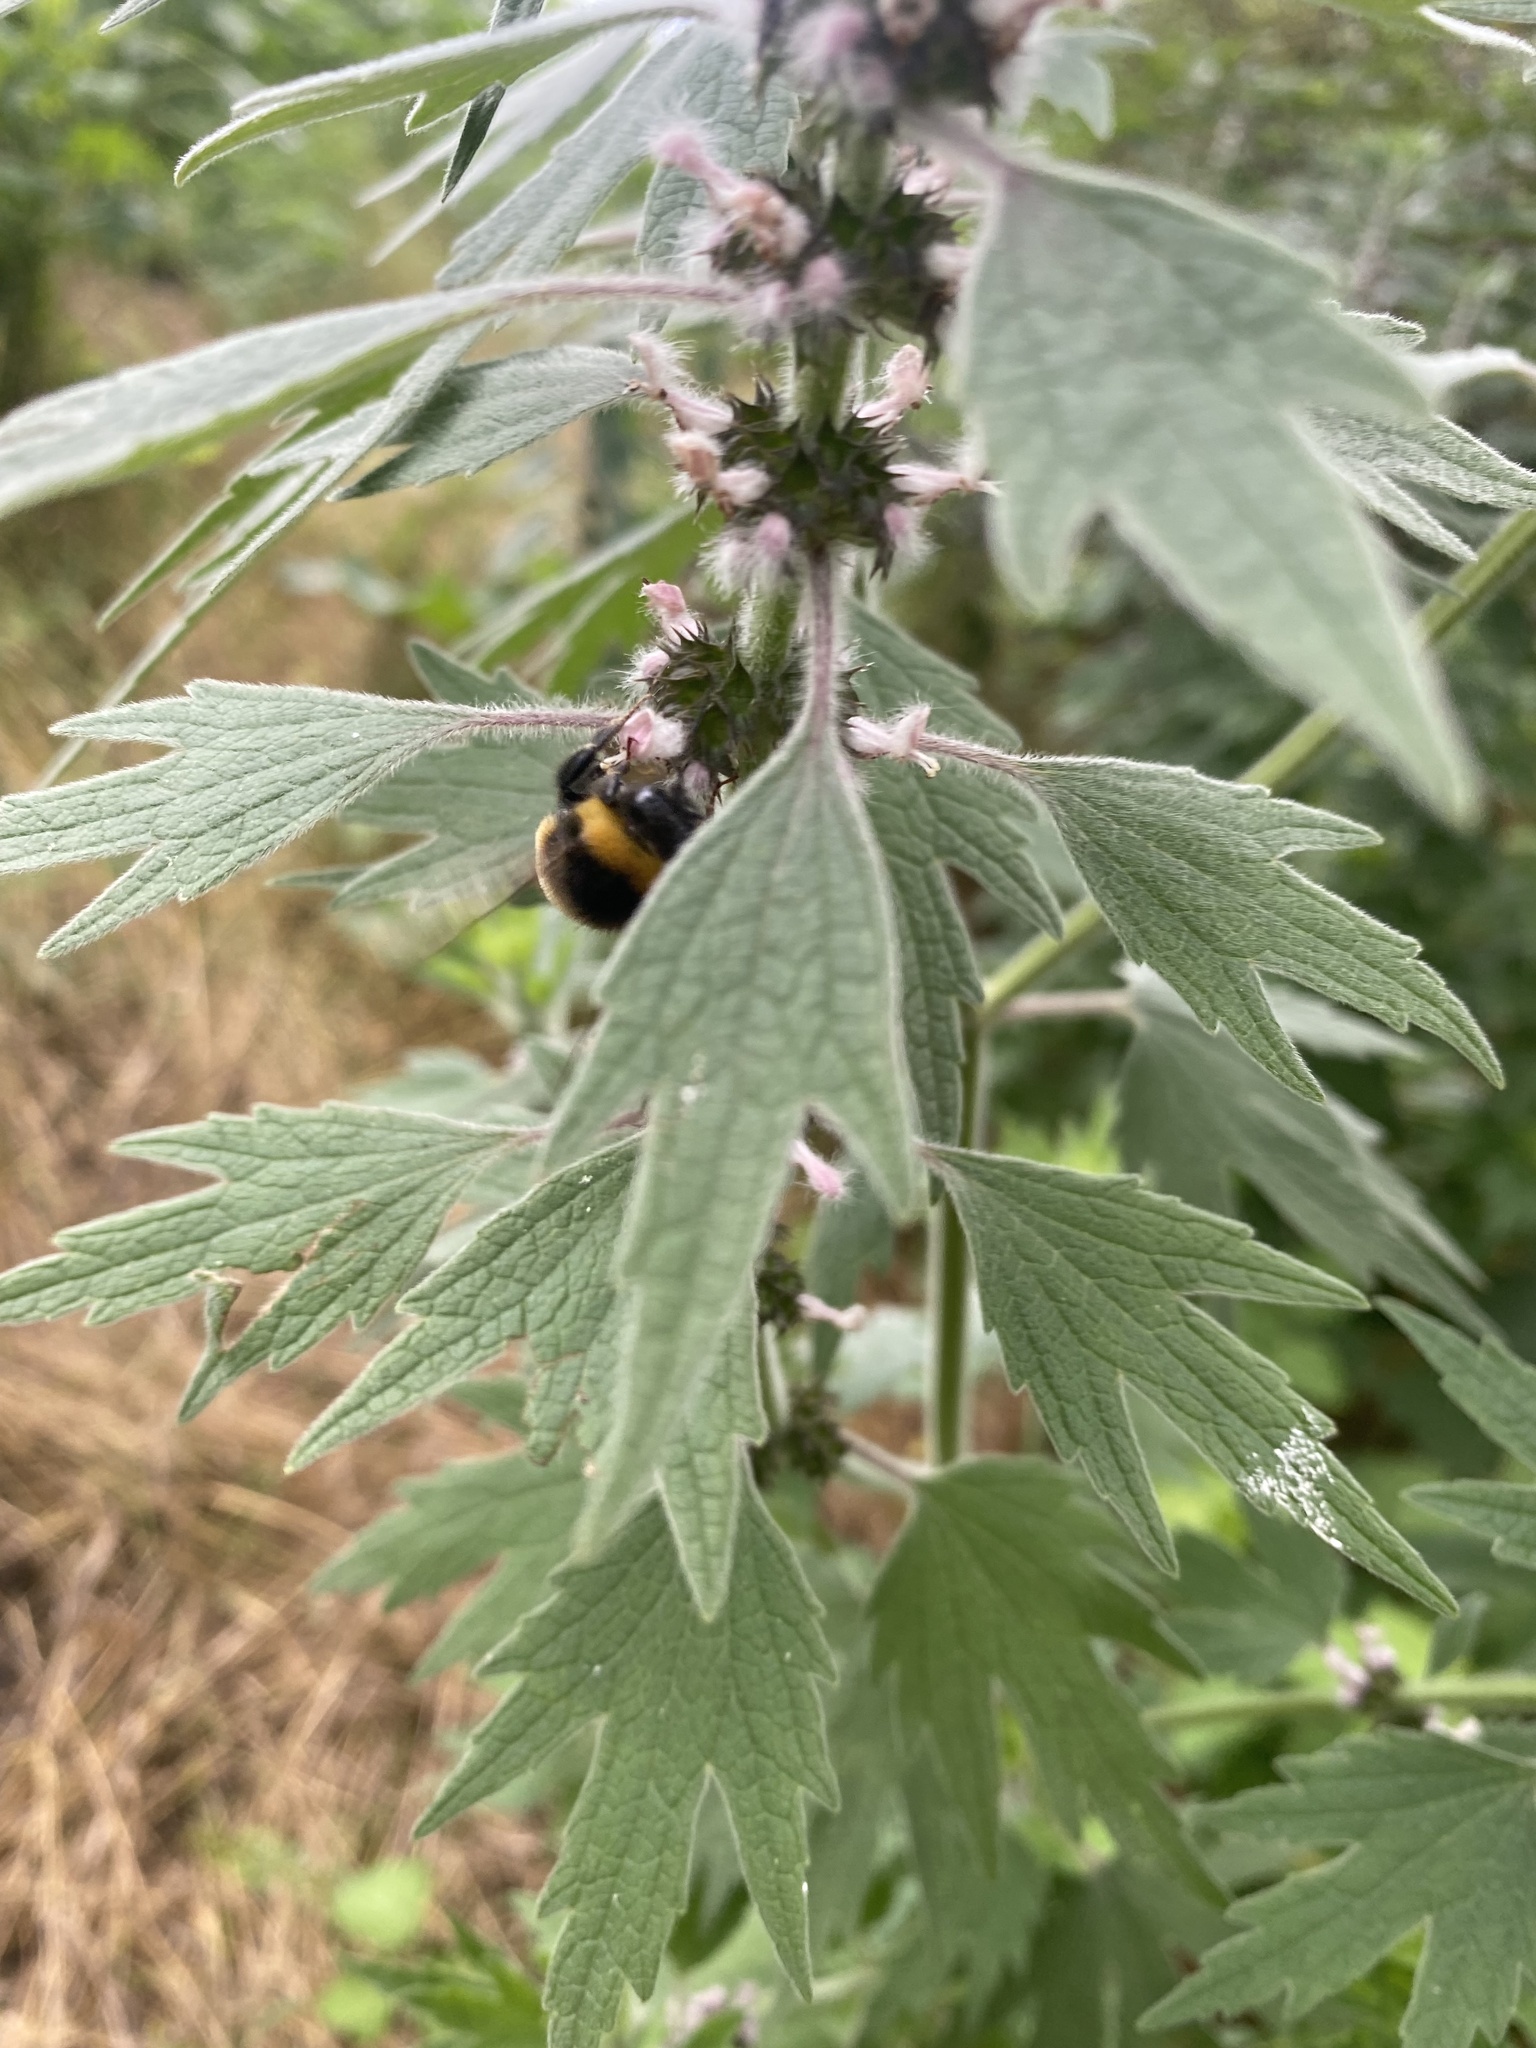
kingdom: Plantae
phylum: Tracheophyta
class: Magnoliopsida
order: Lamiales
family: Lamiaceae
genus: Leonurus
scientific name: Leonurus quinquelobatus
